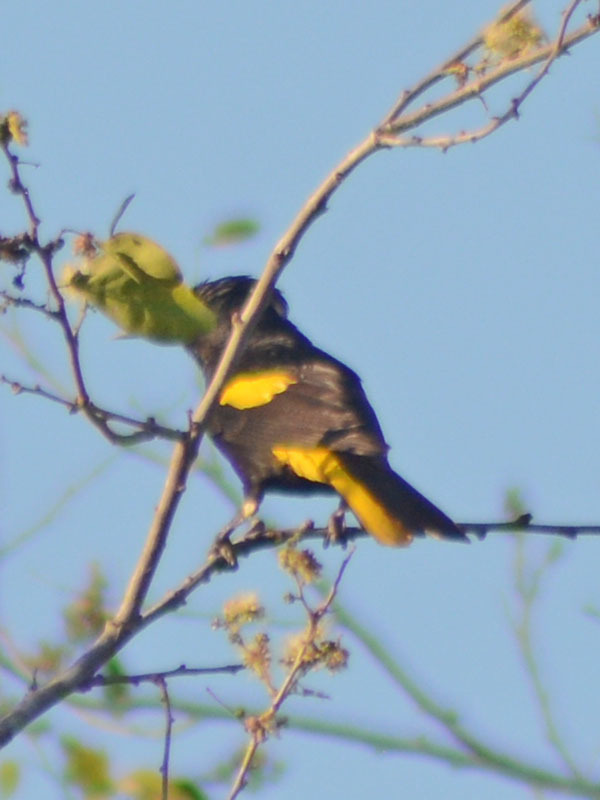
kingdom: Animalia
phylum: Chordata
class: Aves
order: Passeriformes
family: Icteridae
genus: Cacicus
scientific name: Cacicus melanicterus
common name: Yellow-winged cacique
